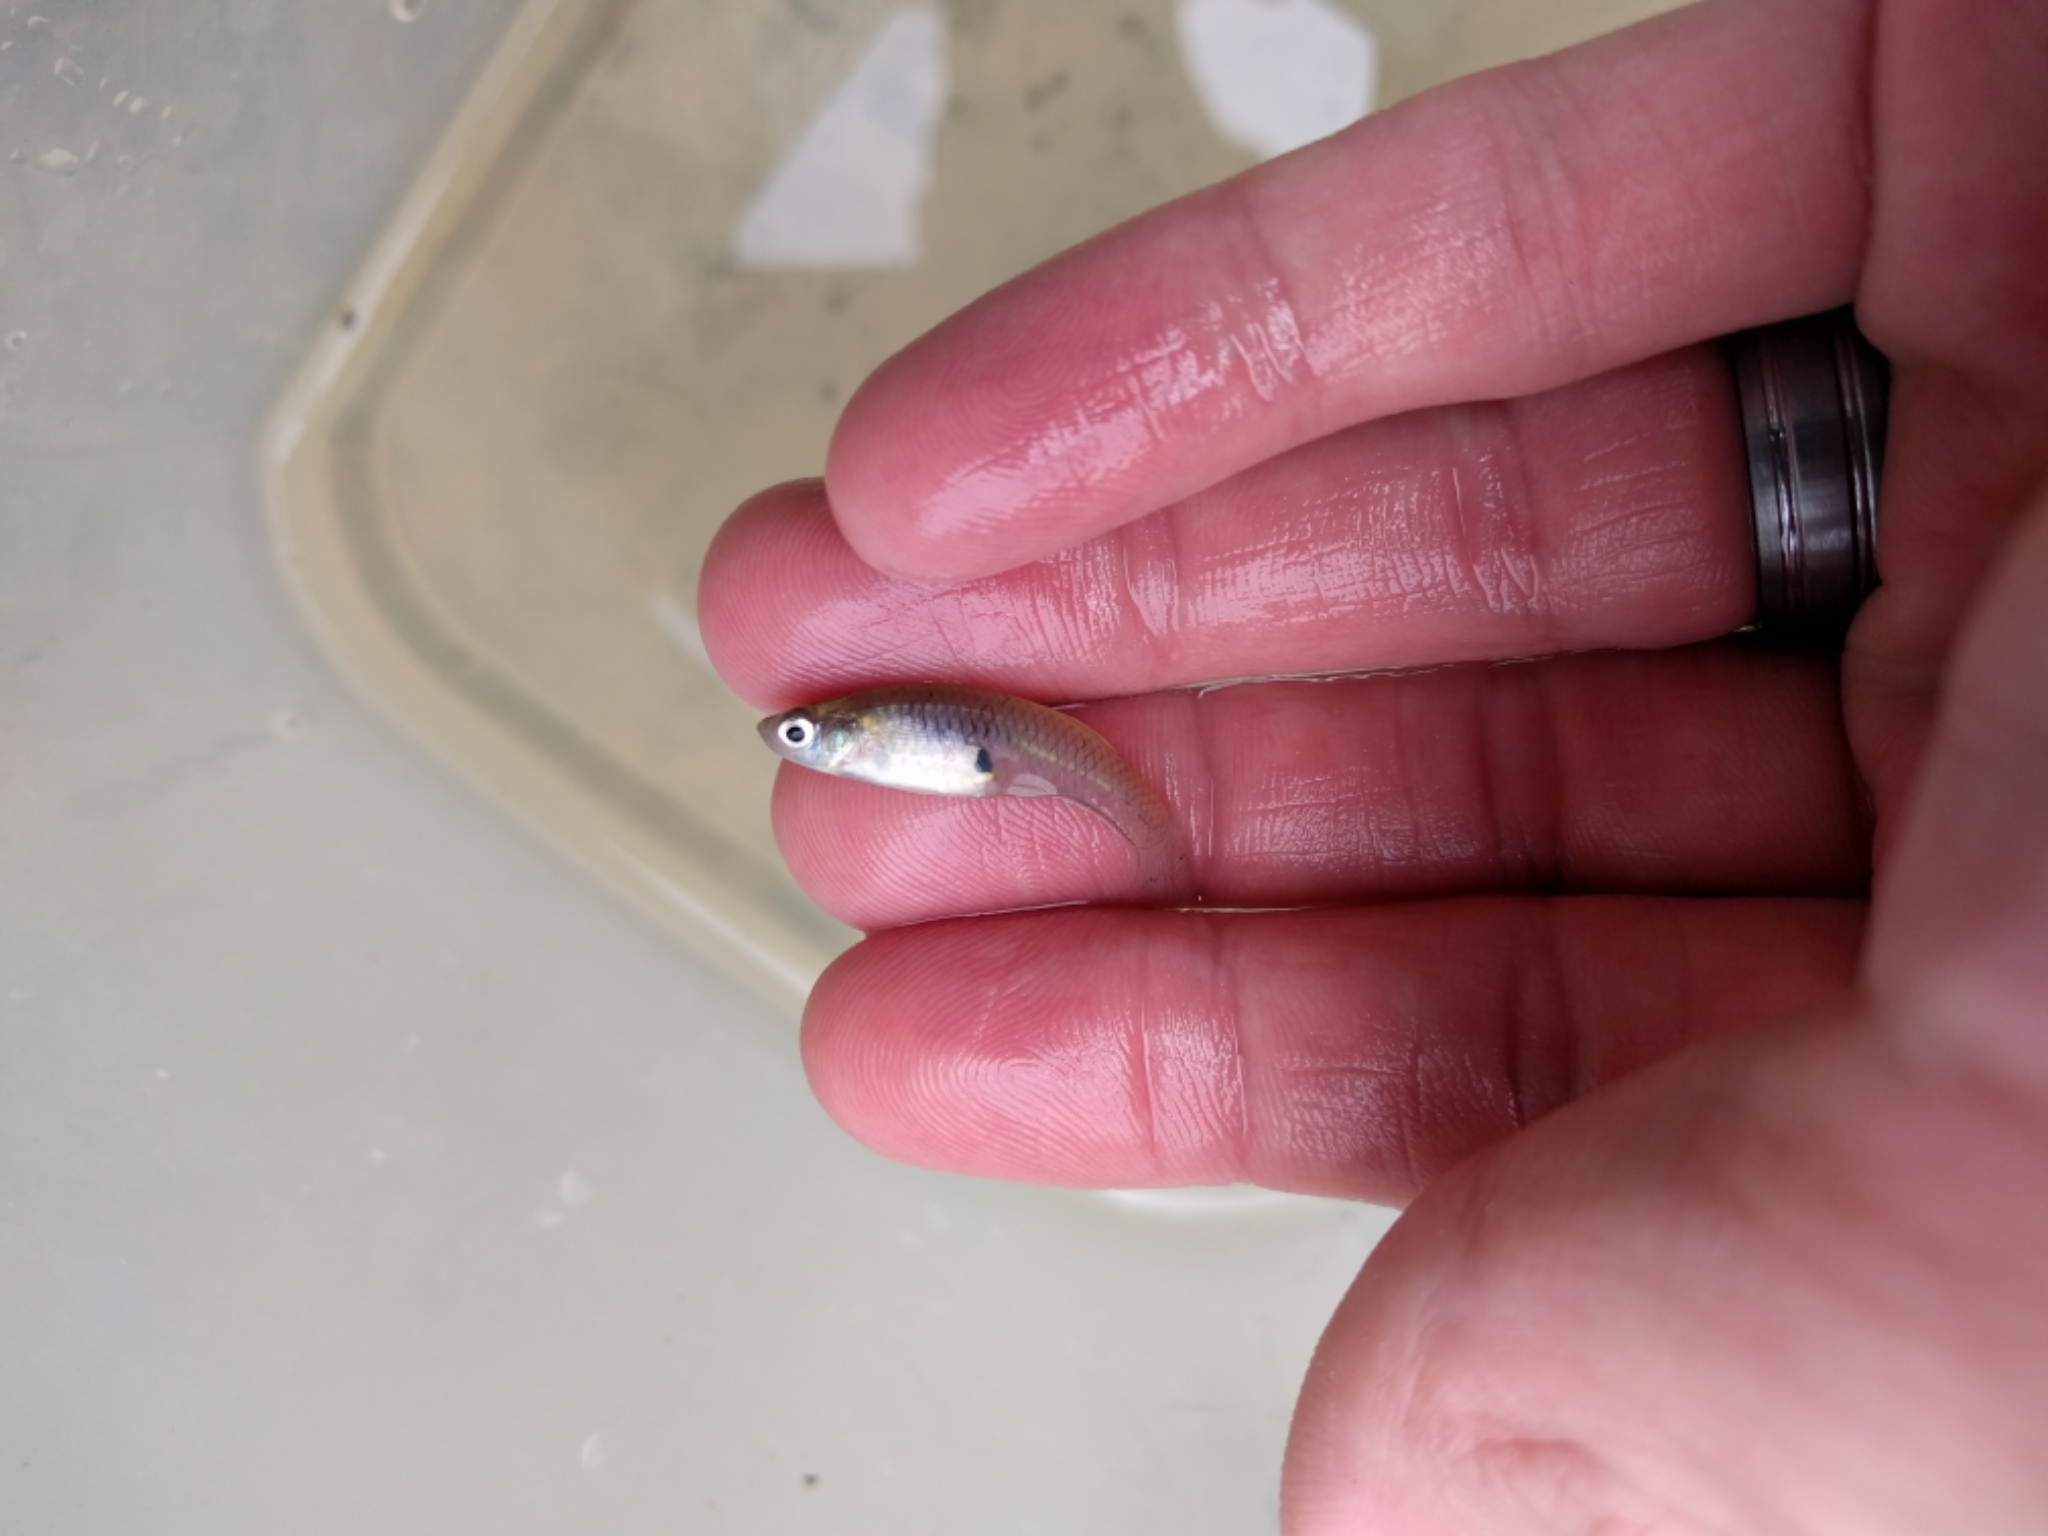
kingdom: Animalia
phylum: Chordata
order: Cyprinodontiformes
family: Poeciliidae
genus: Gambusia
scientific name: Gambusia affinis
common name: Mosquitofish
